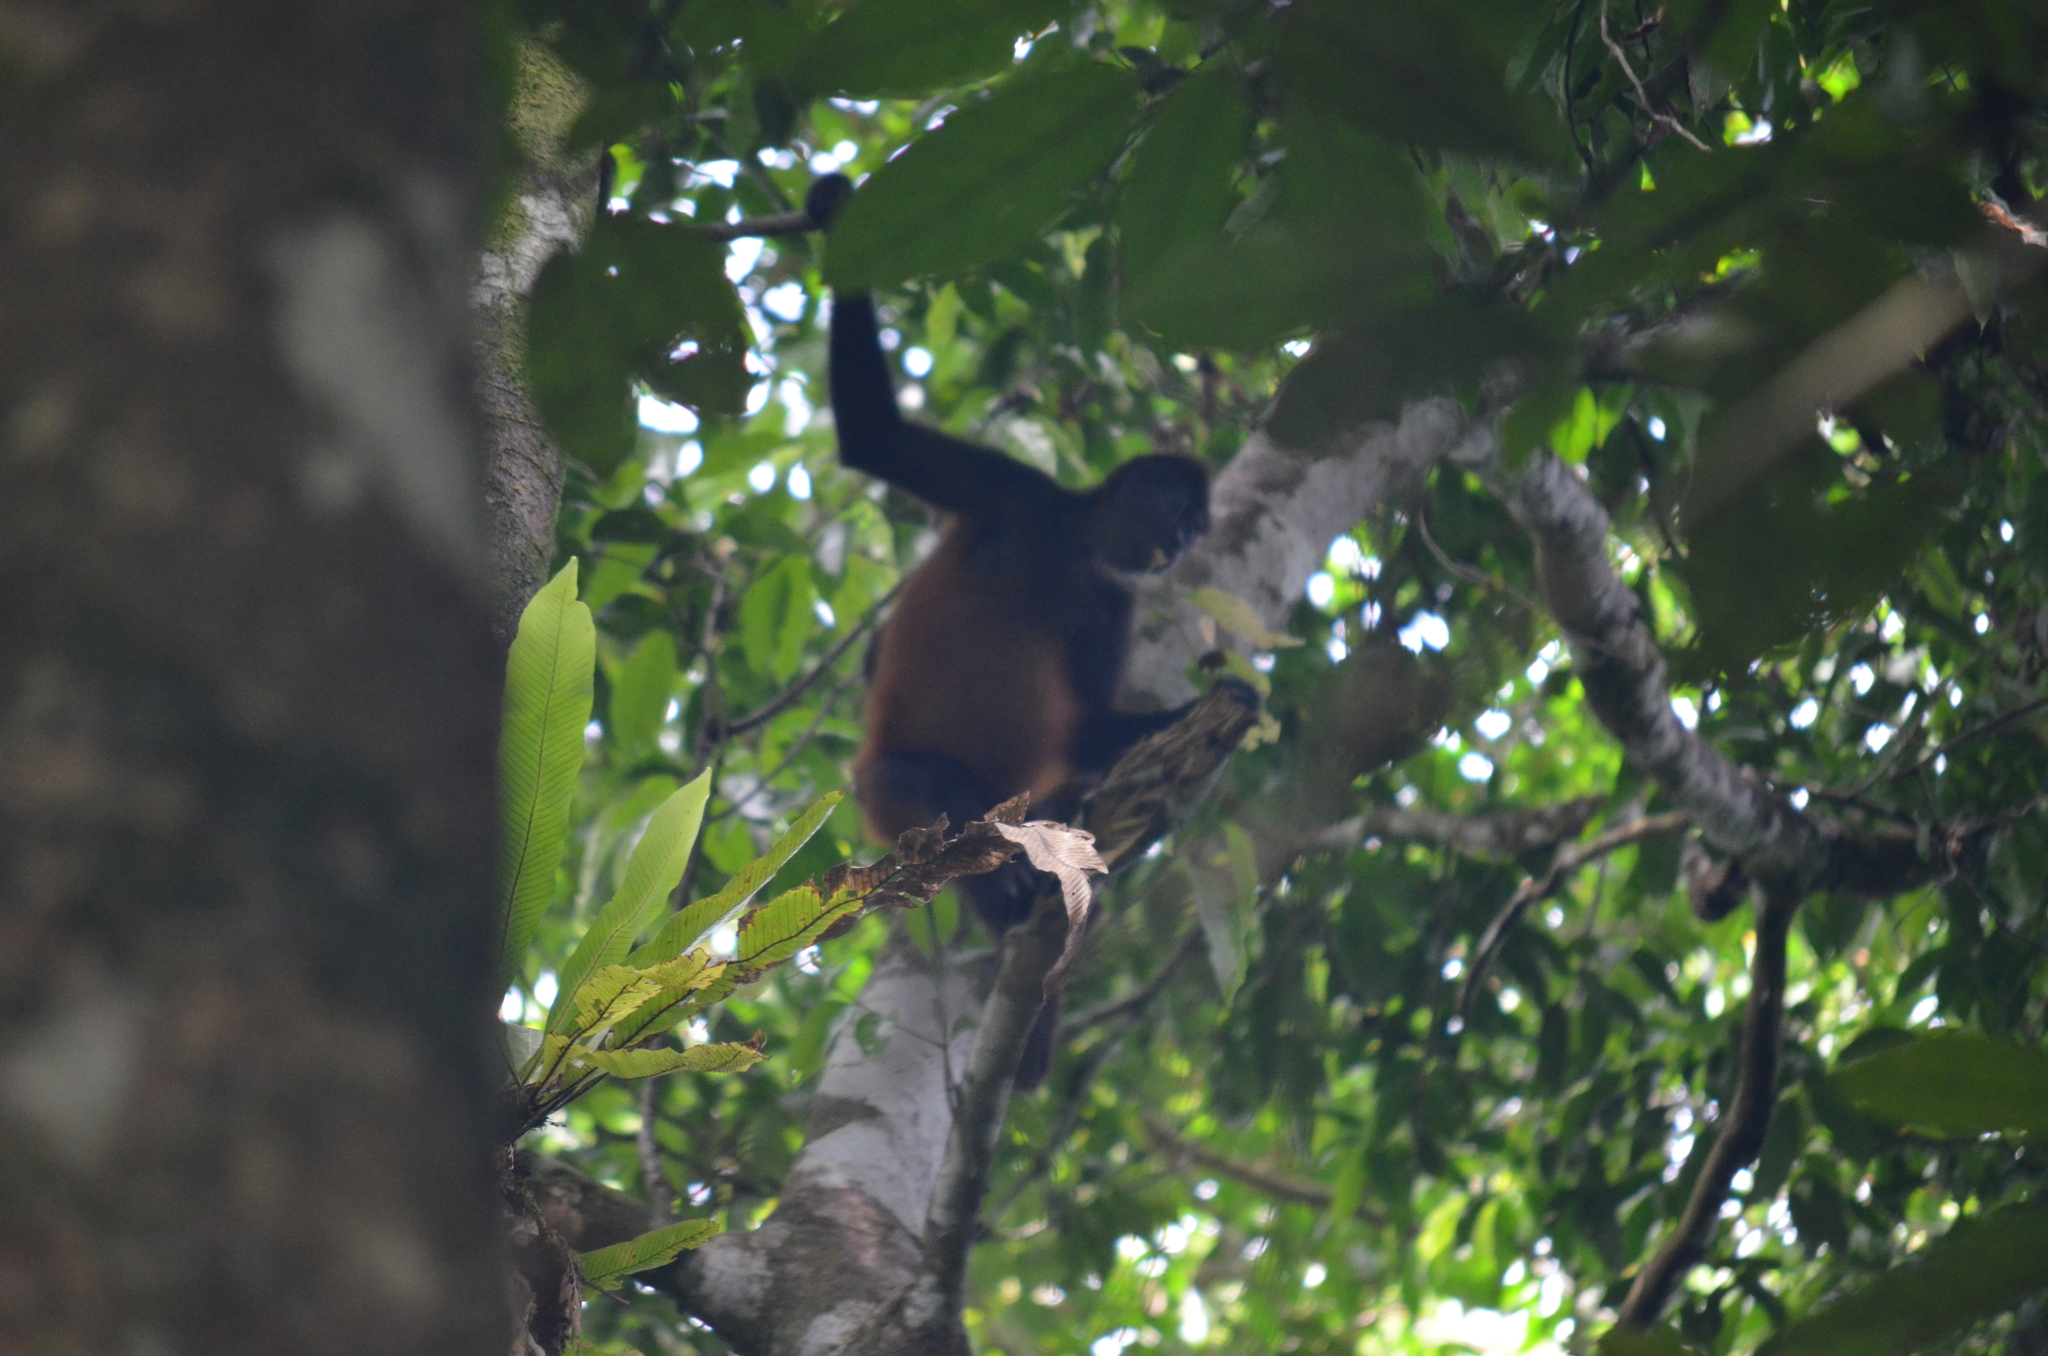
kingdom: Animalia
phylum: Chordata
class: Mammalia
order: Primates
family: Atelidae
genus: Ateles
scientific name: Ateles geoffroyi
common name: Black-handed spider monkey
